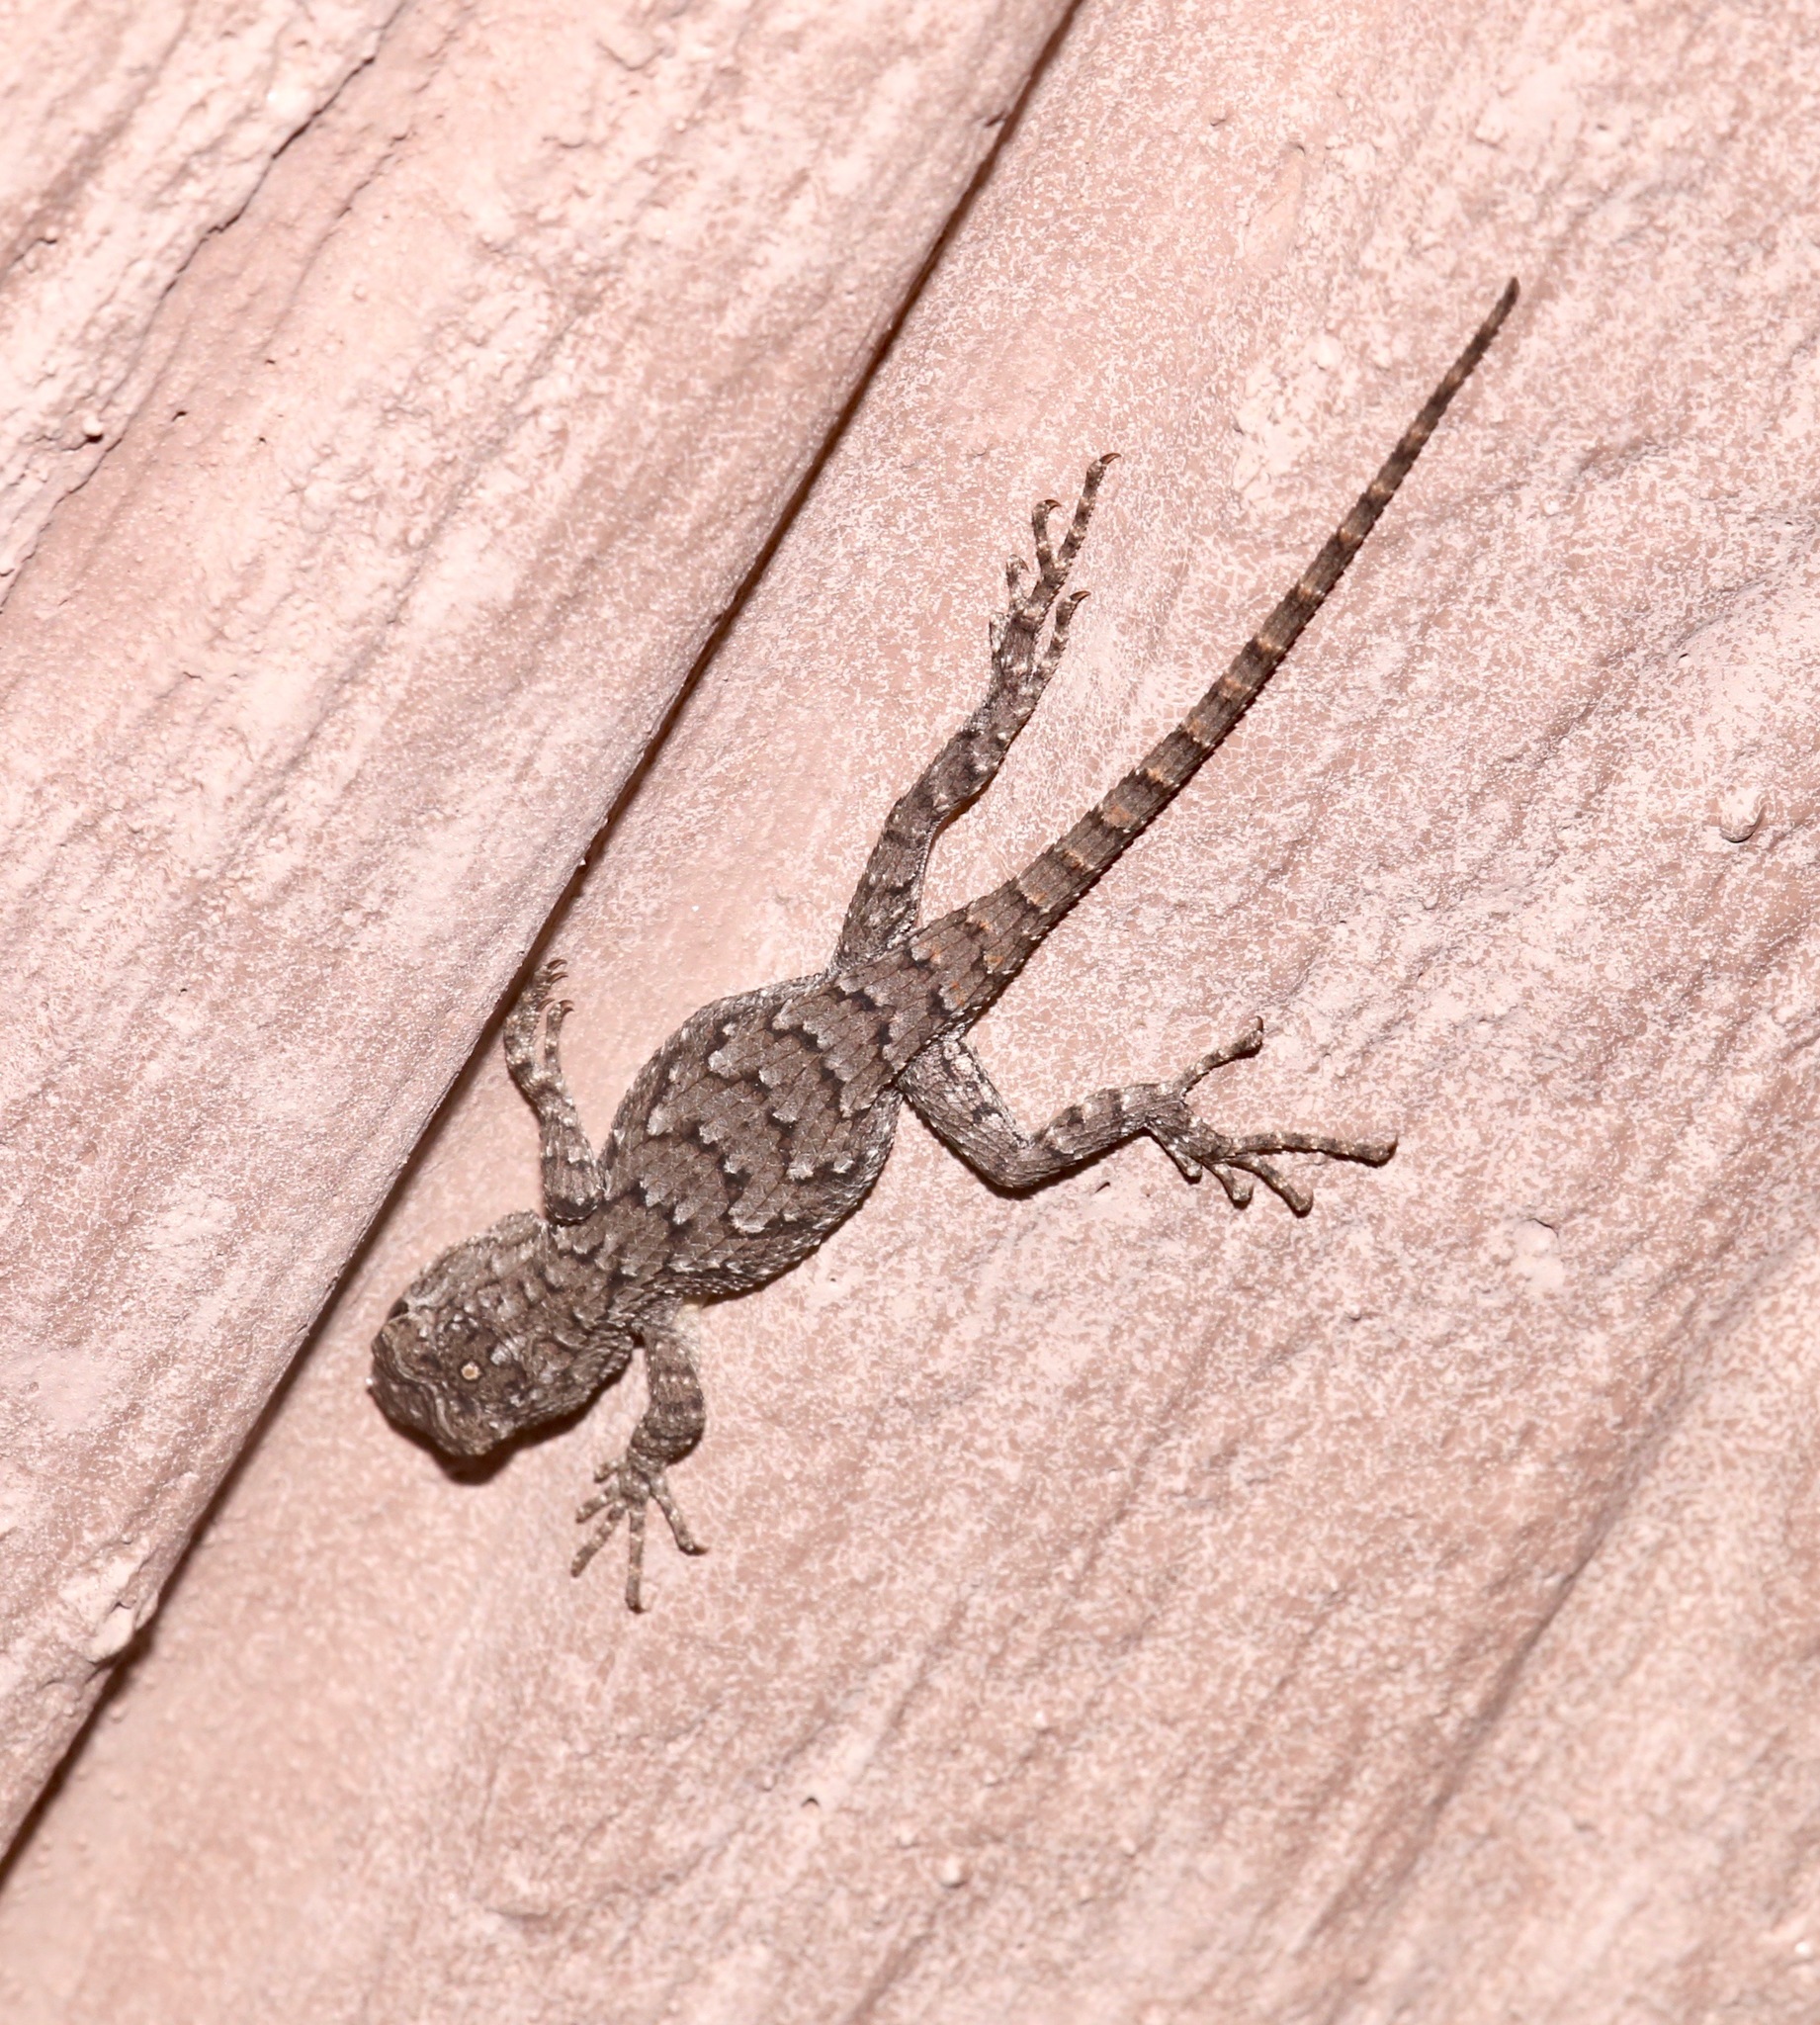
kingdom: Animalia
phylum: Chordata
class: Squamata
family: Phrynosomatidae
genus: Sceloporus
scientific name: Sceloporus undulatus
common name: Eastern fence lizard
